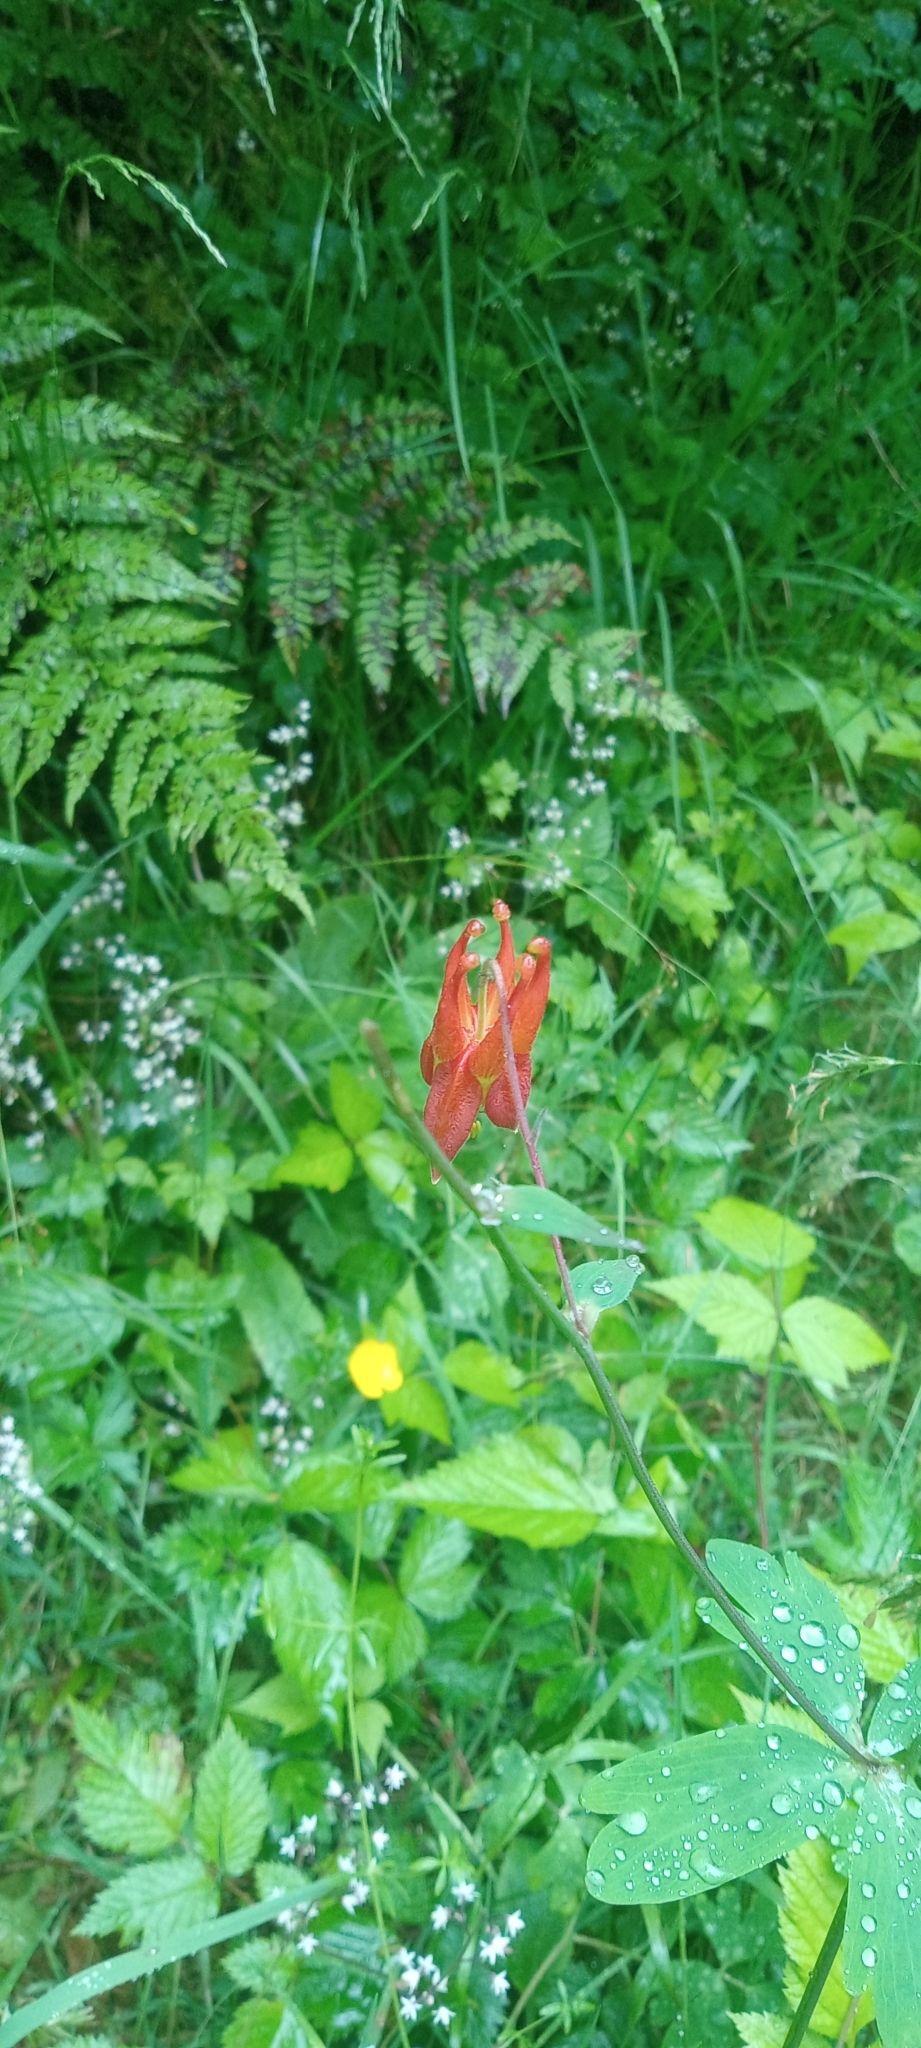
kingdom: Plantae
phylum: Tracheophyta
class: Magnoliopsida
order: Ranunculales
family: Ranunculaceae
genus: Aquilegia
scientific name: Aquilegia formosa
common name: Sitka columbine
